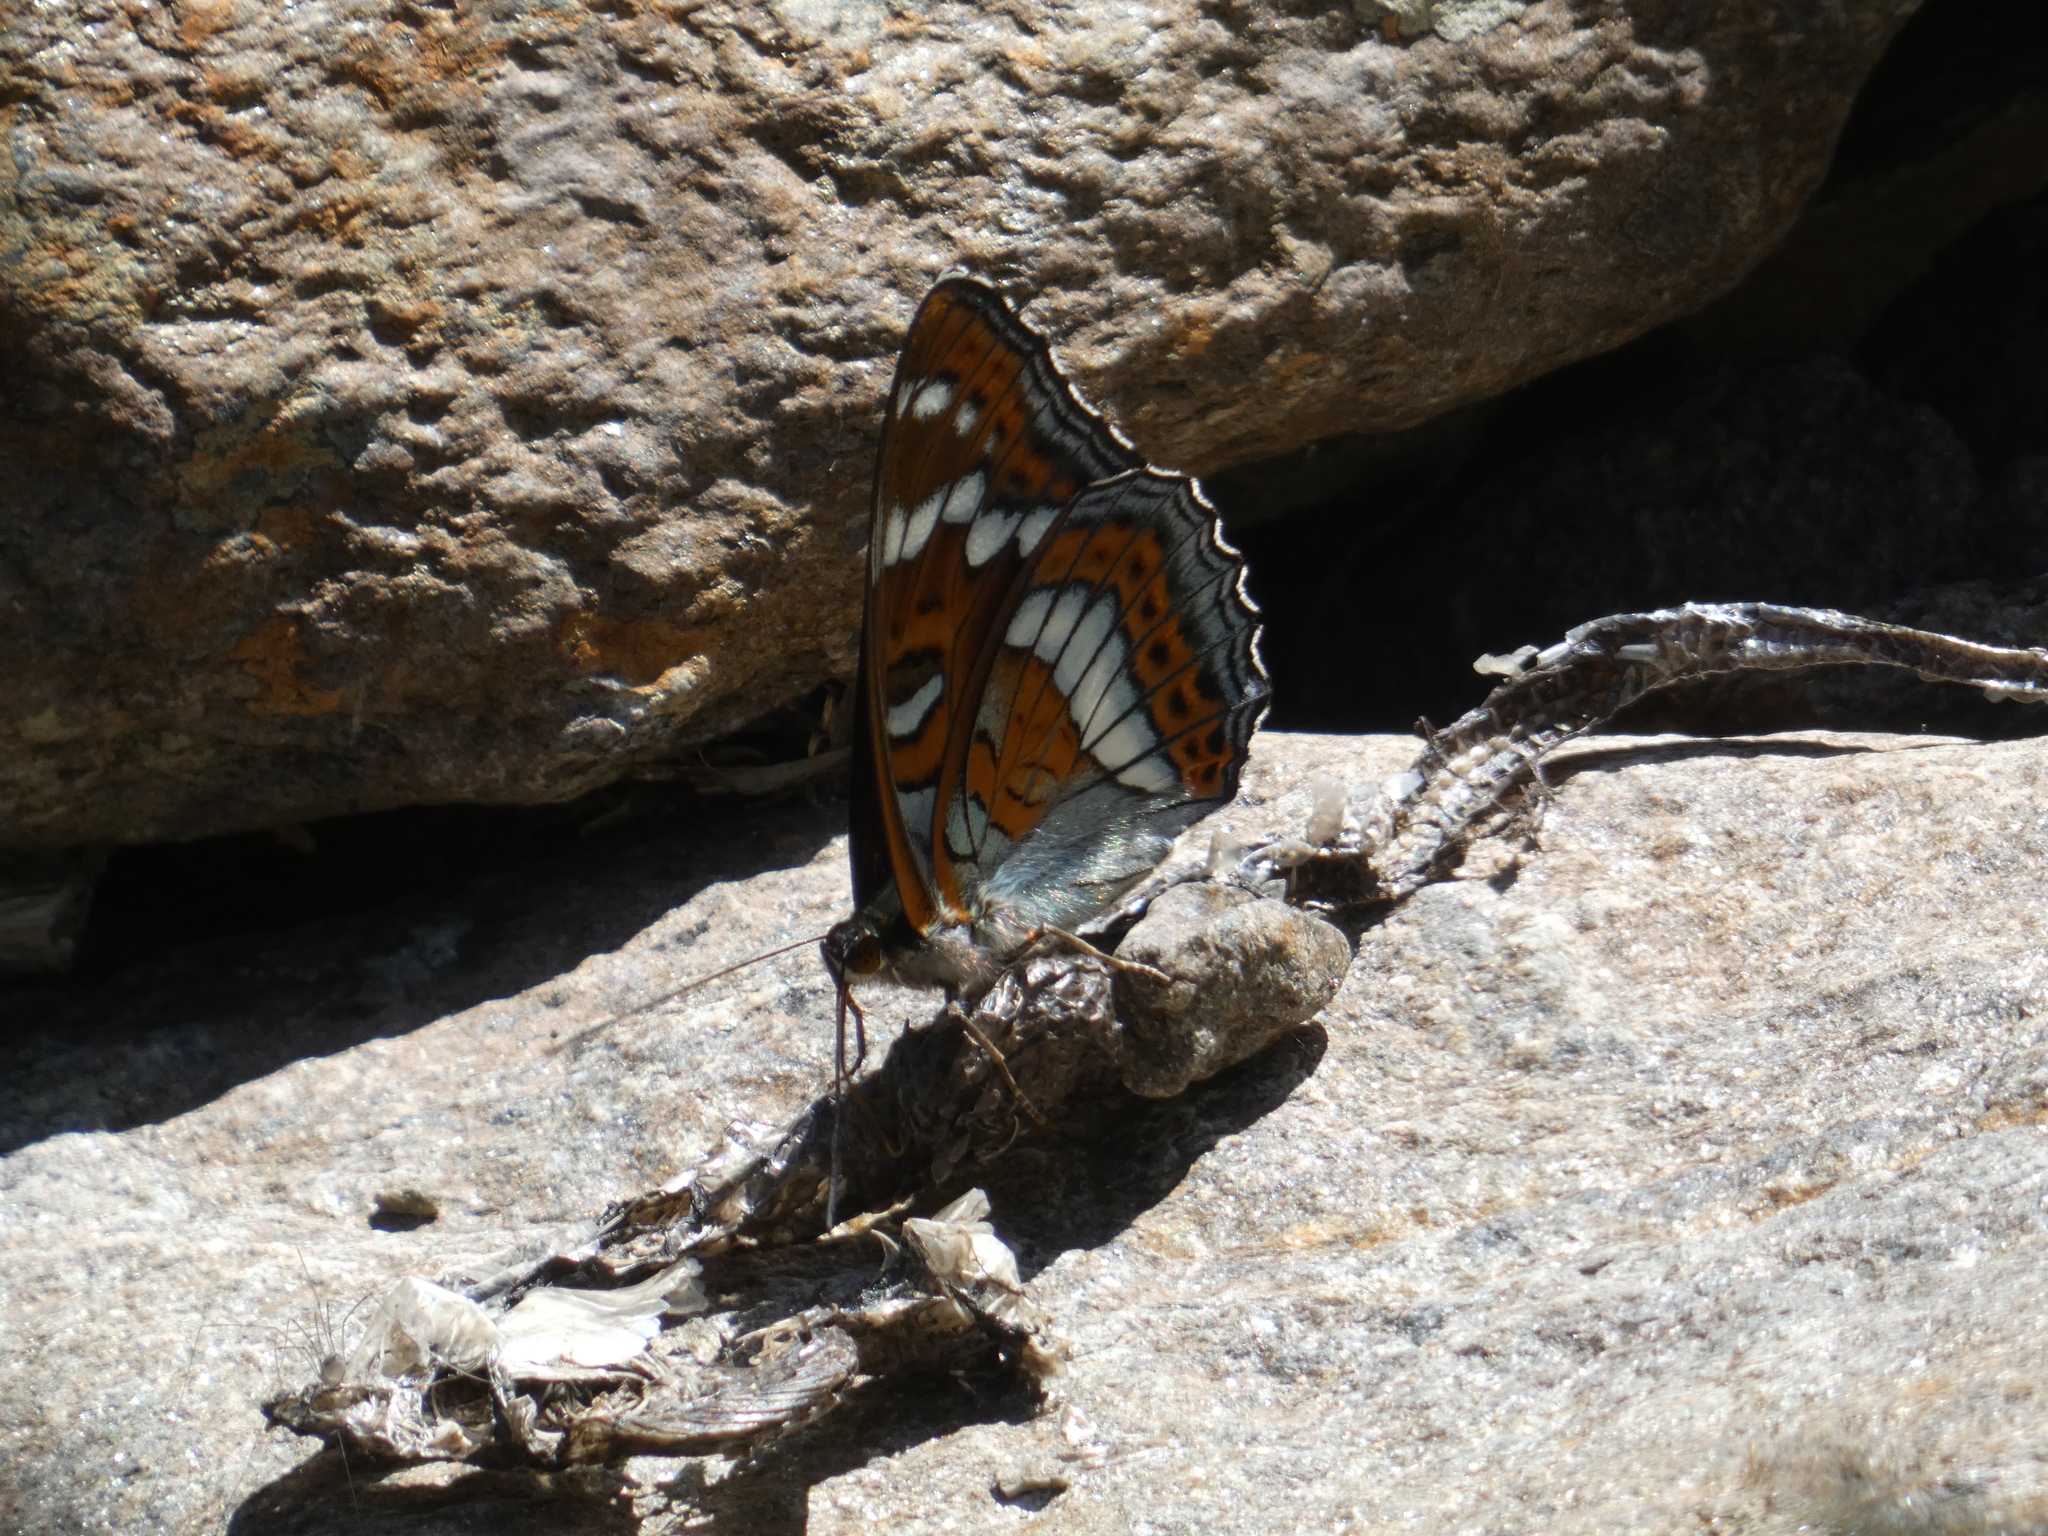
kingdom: Animalia
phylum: Arthropoda
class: Insecta
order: Lepidoptera
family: Nymphalidae
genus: Limenitis
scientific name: Limenitis populi
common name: Poplar admiral
